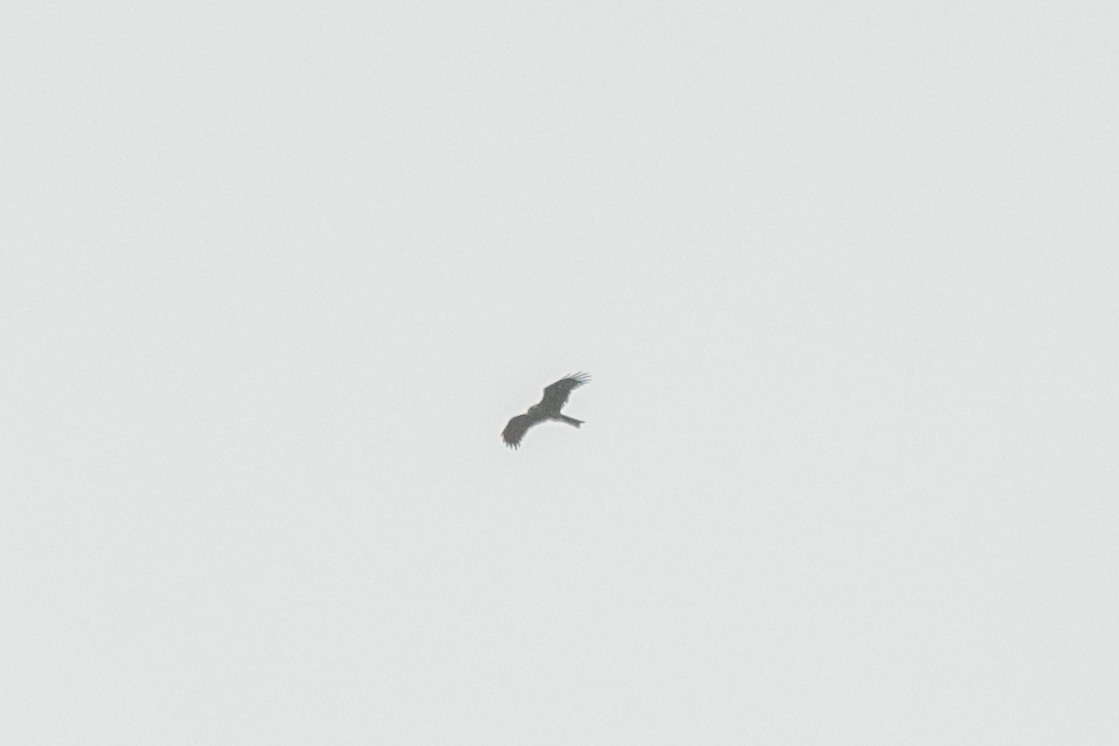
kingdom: Animalia
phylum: Chordata
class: Aves
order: Accipitriformes
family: Accipitridae
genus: Milvus
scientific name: Milvus migrans
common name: Black kite
